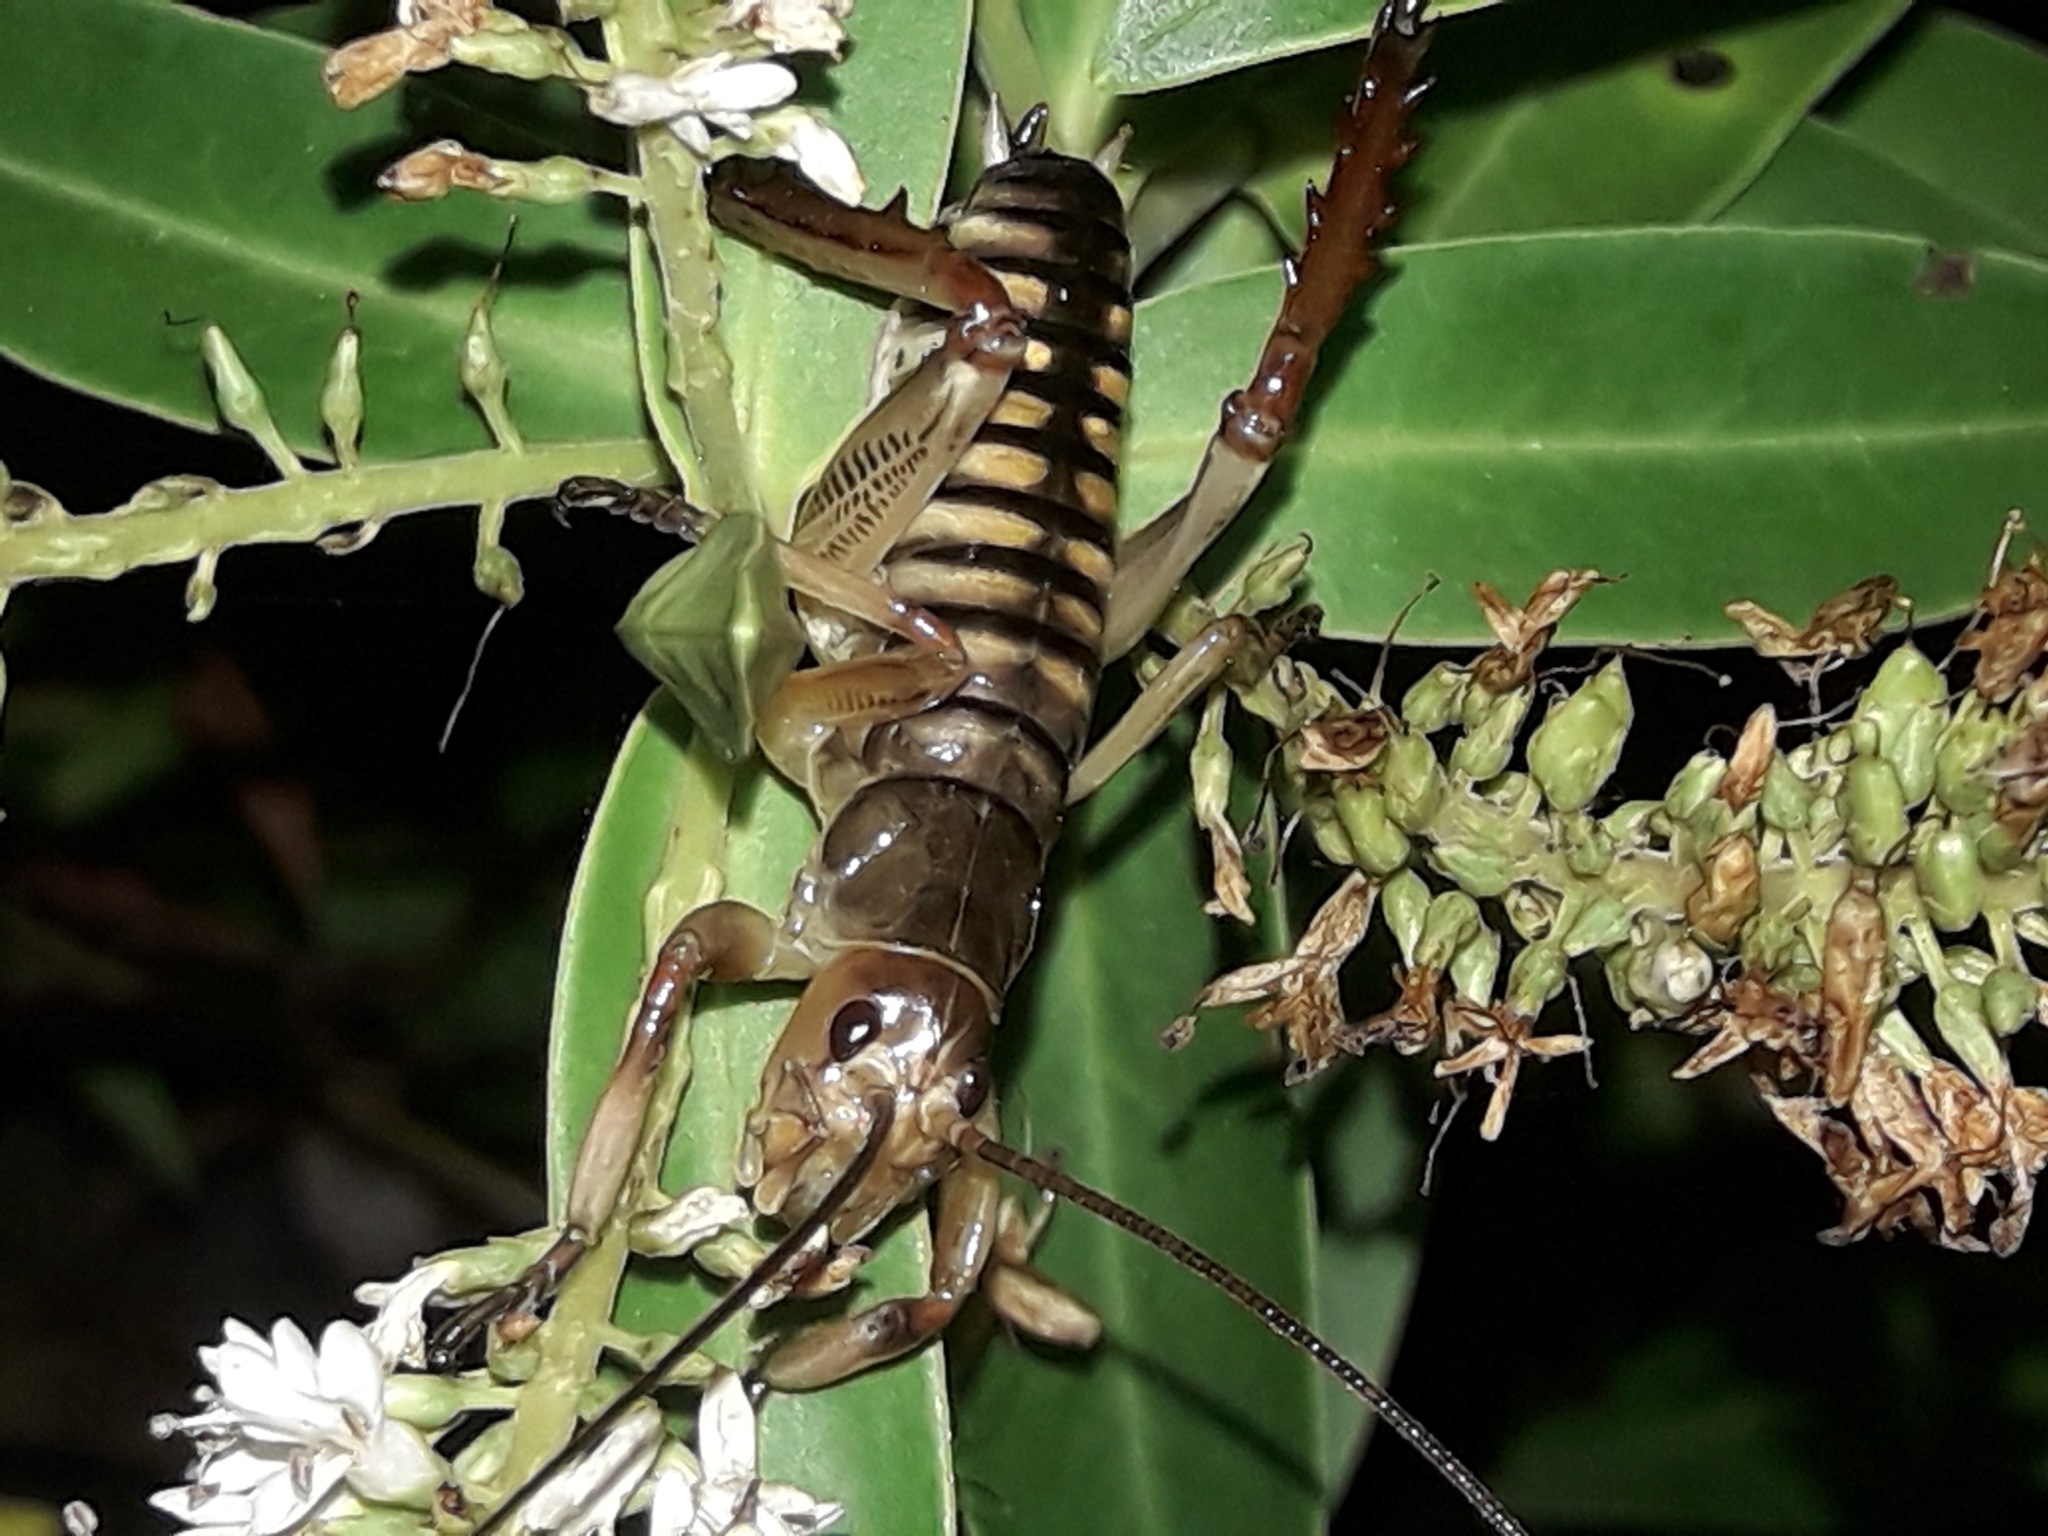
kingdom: Animalia
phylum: Arthropoda
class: Insecta
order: Orthoptera
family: Anostostomatidae
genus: Hemideina
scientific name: Hemideina crassidens
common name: Wellington tree weta
